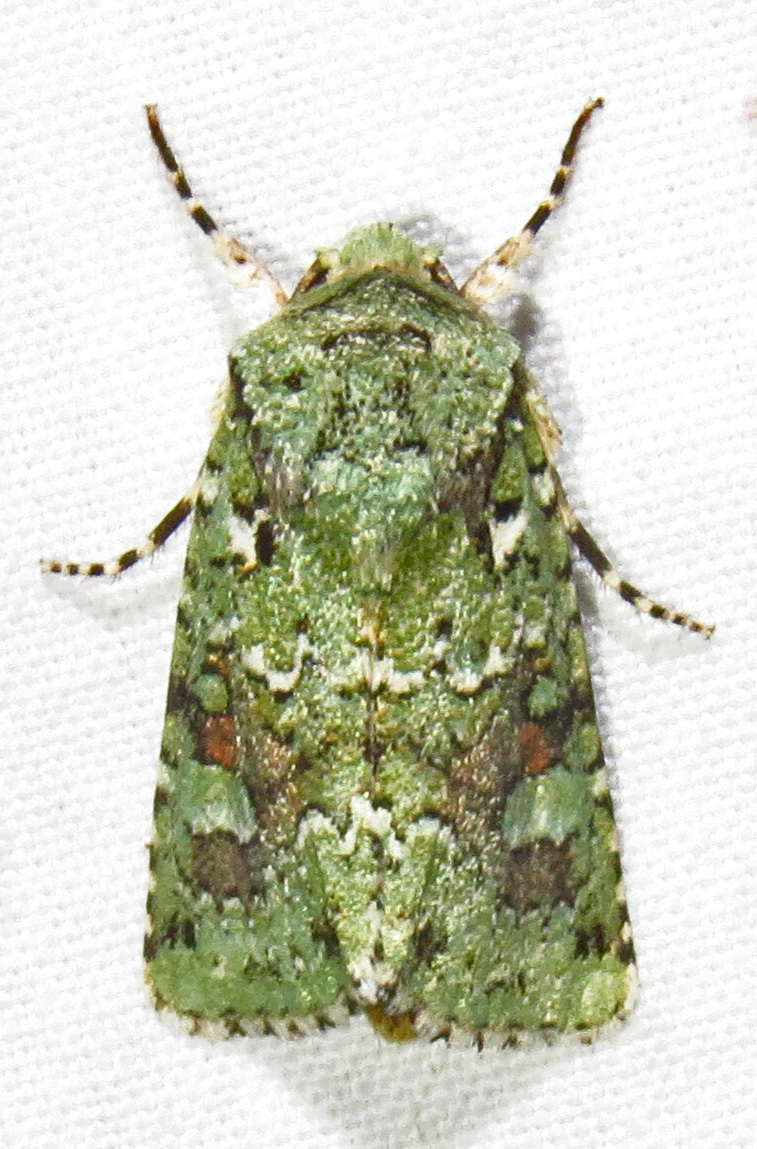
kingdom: Animalia
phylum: Arthropoda
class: Insecta
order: Lepidoptera
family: Noctuidae
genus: Lacinipolia
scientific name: Lacinipolia laudabilis
